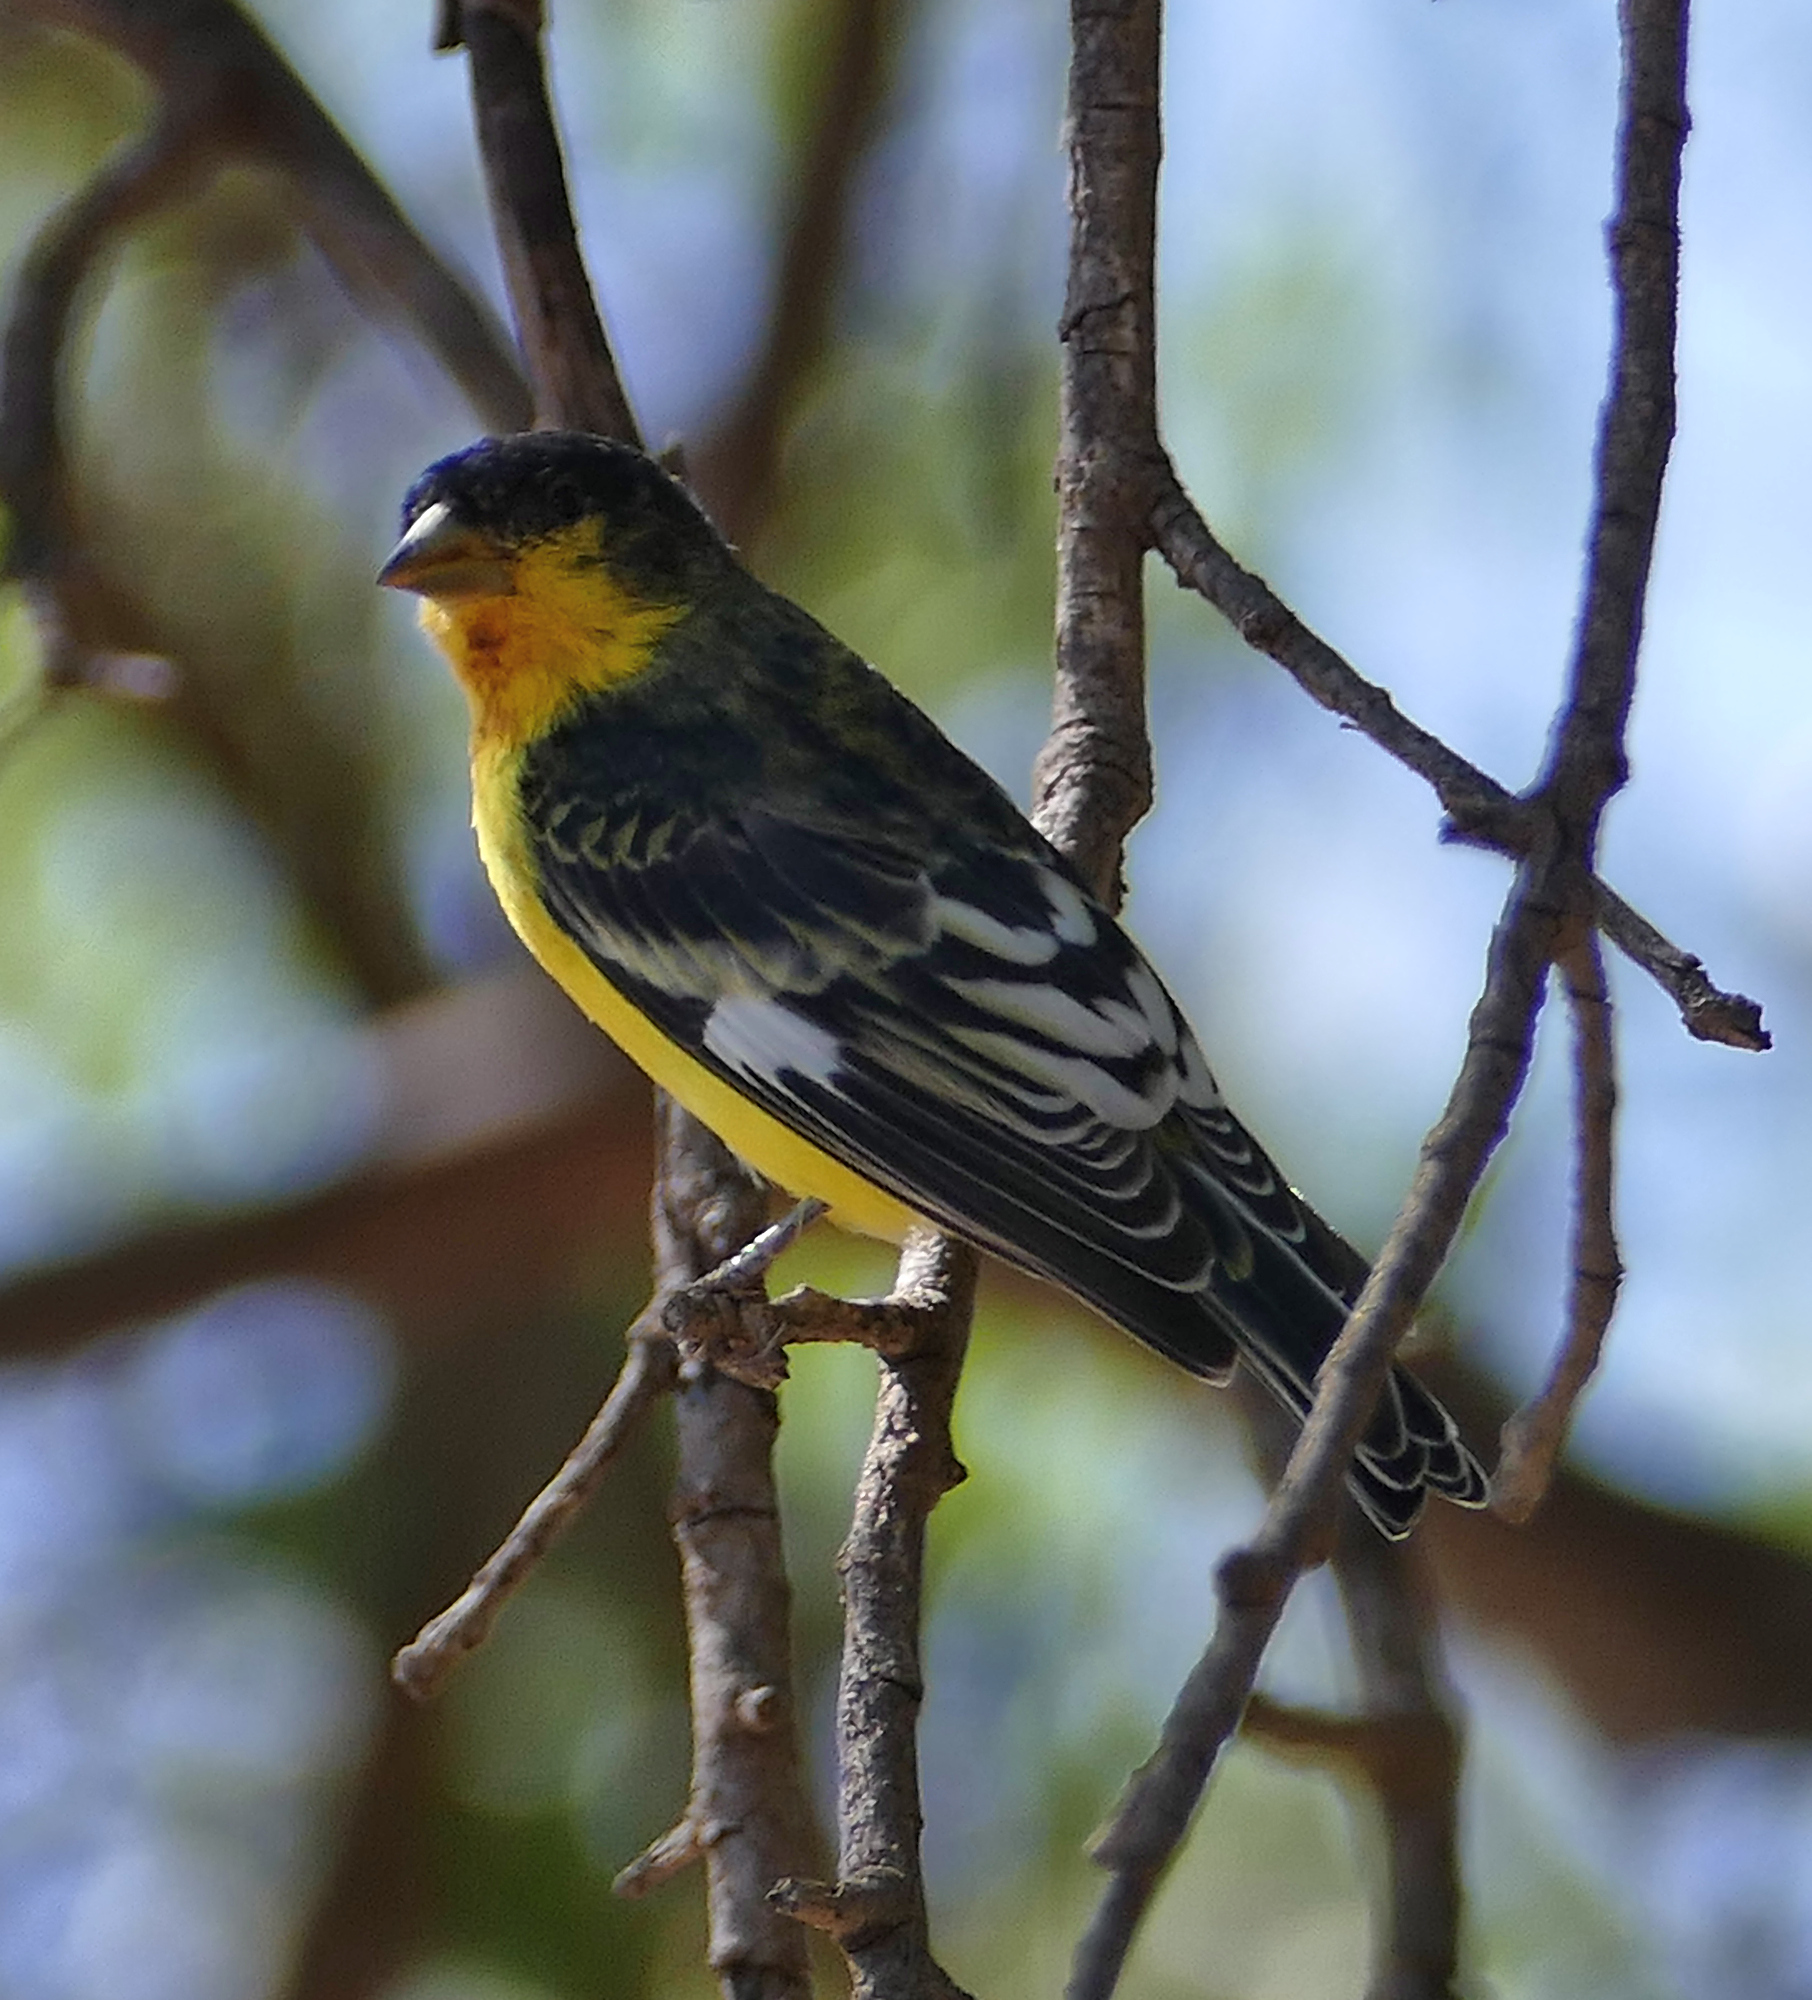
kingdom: Animalia
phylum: Chordata
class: Aves
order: Passeriformes
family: Fringillidae
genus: Spinus
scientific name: Spinus psaltria
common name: Lesser goldfinch
